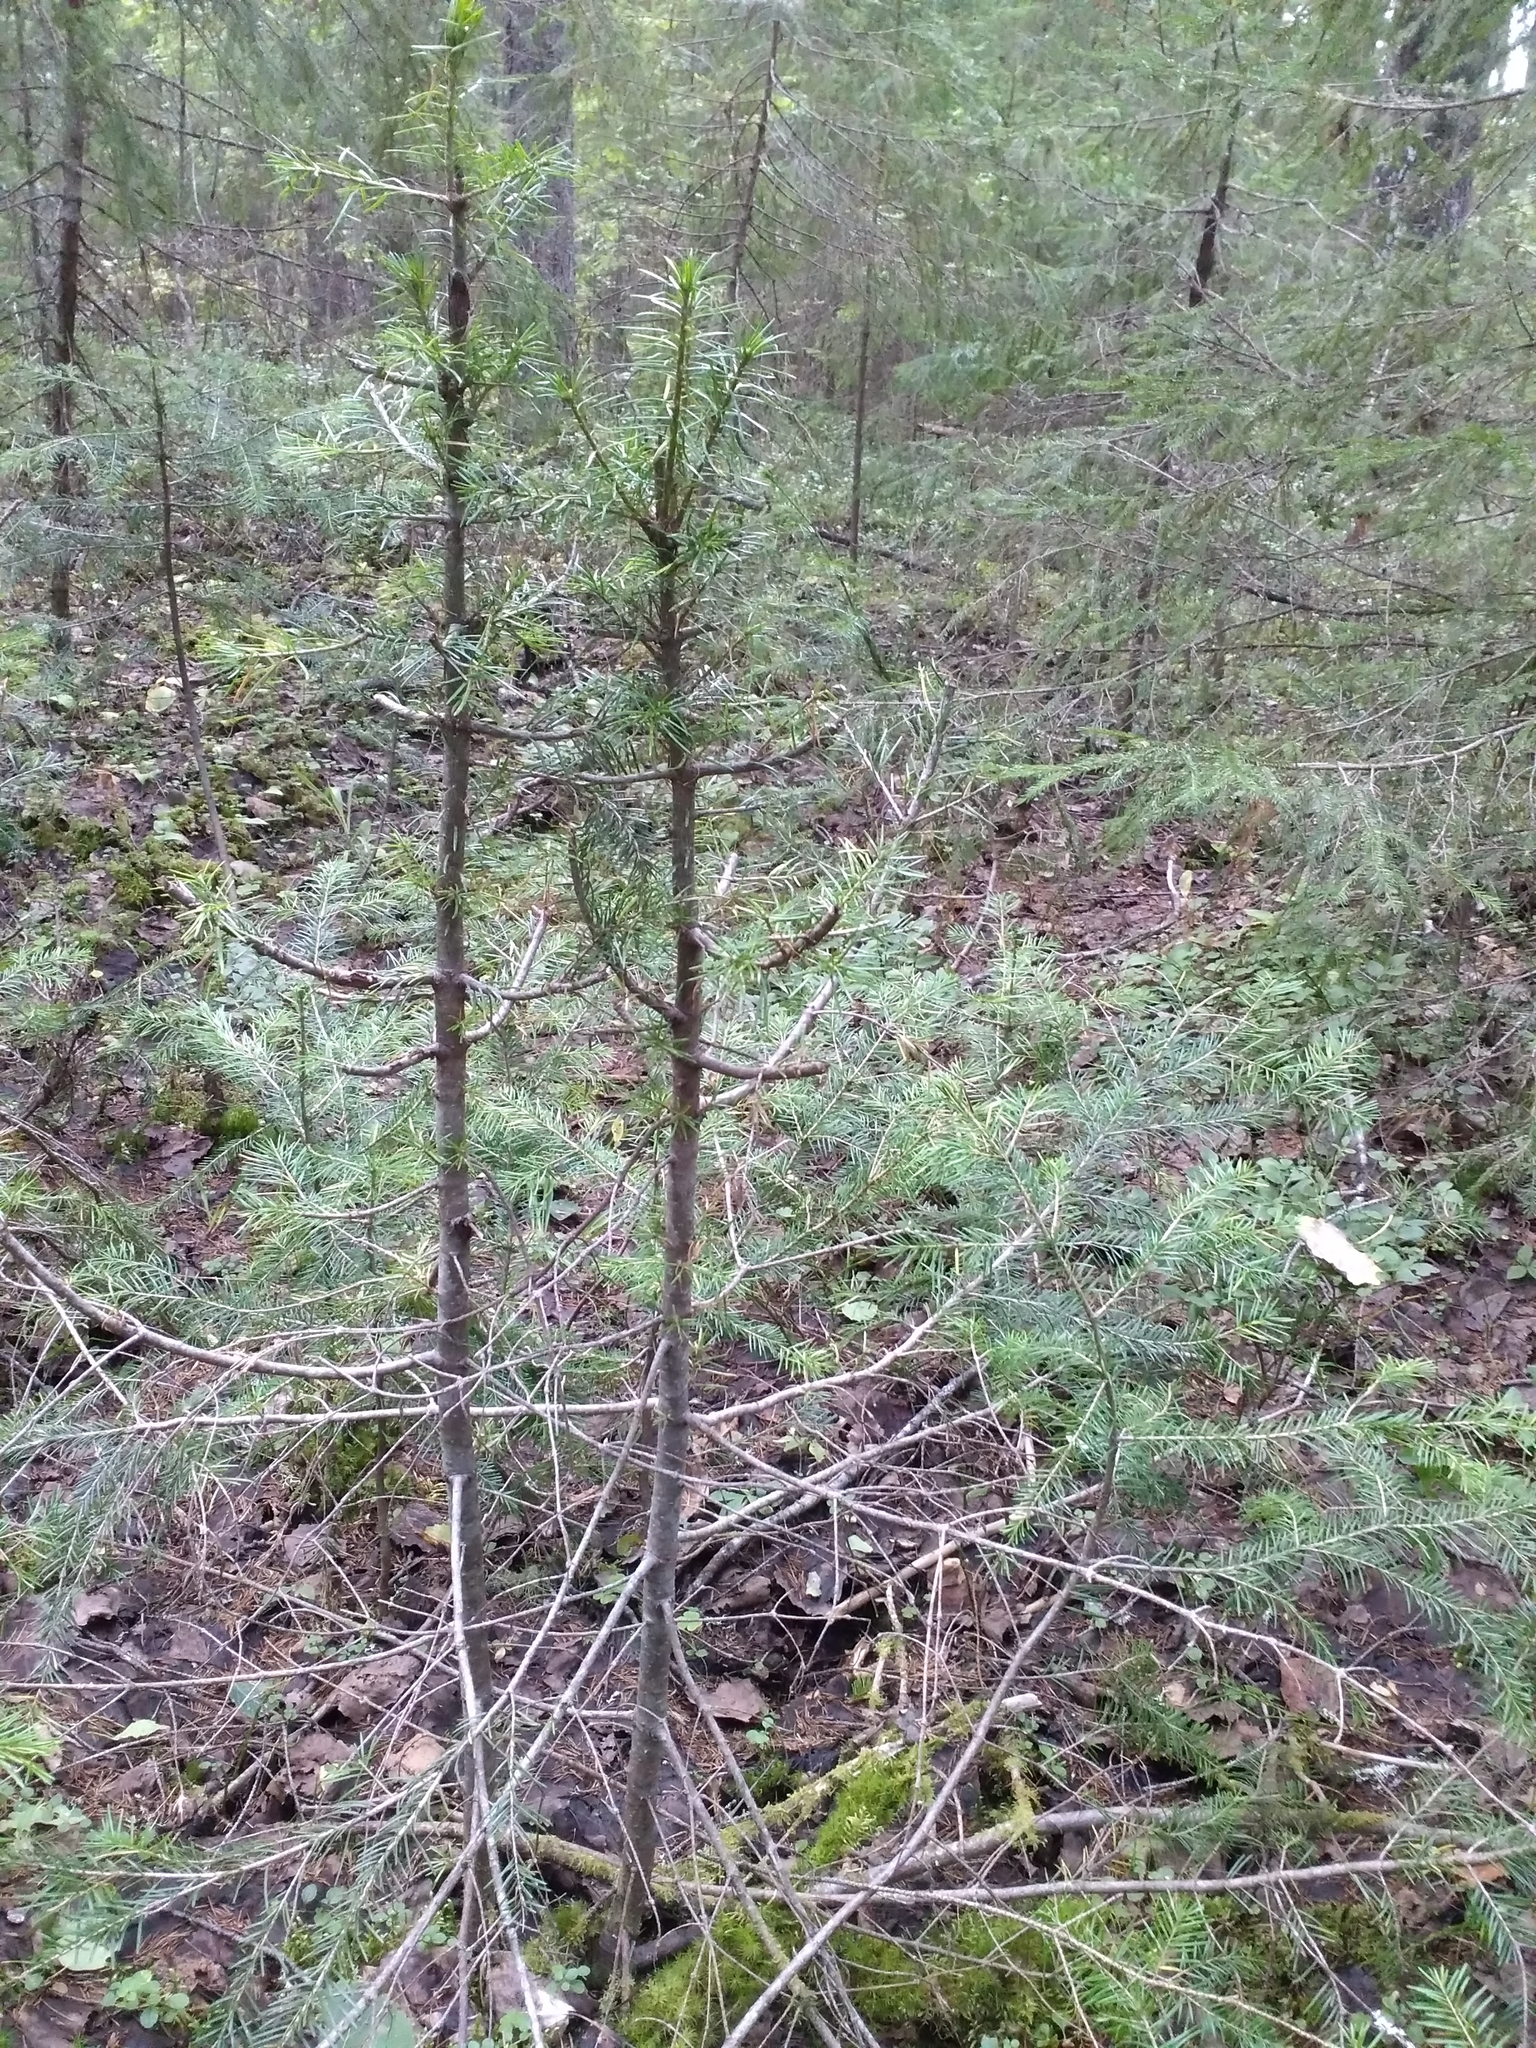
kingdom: Plantae
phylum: Tracheophyta
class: Pinopsida
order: Pinales
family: Pinaceae
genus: Abies
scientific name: Abies sibirica
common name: Siberian fir
